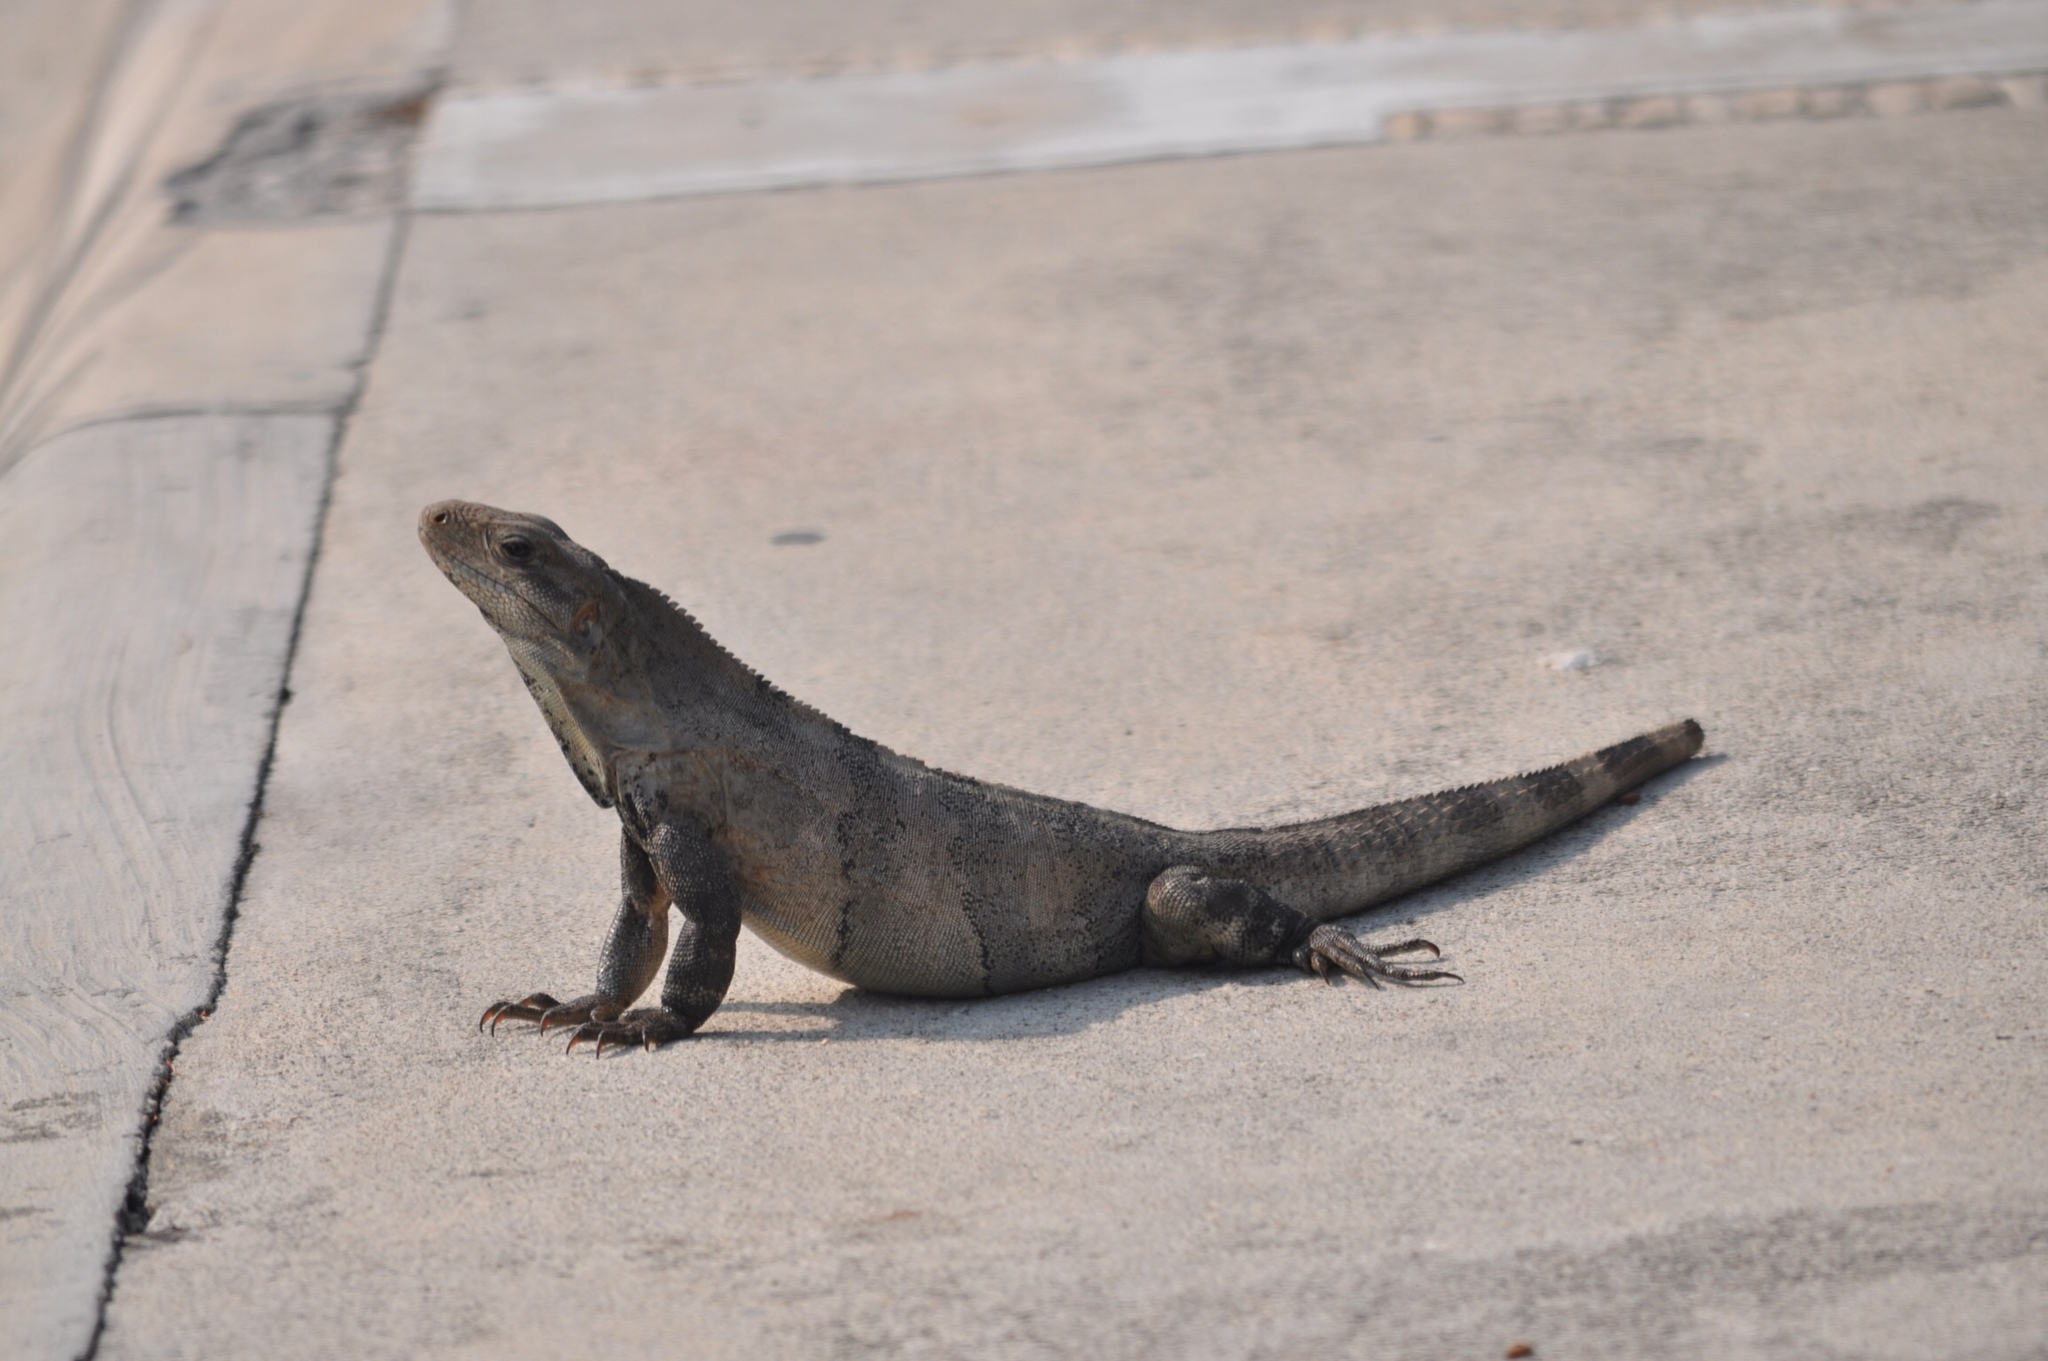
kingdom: Animalia
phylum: Chordata
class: Squamata
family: Iguanidae
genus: Ctenosaura
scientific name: Ctenosaura similis
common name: Black spiny-tailed iguana
